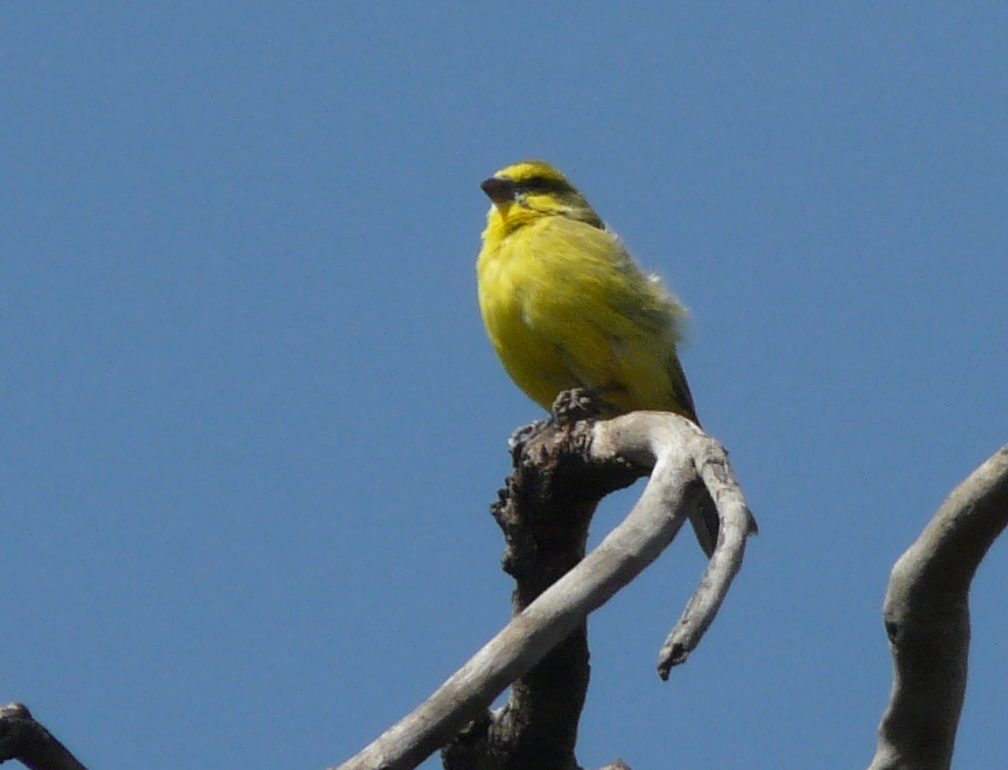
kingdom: Animalia
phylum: Chordata
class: Aves
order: Passeriformes
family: Fringillidae
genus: Crithagra
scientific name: Crithagra mozambica
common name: Yellow-fronted canary
